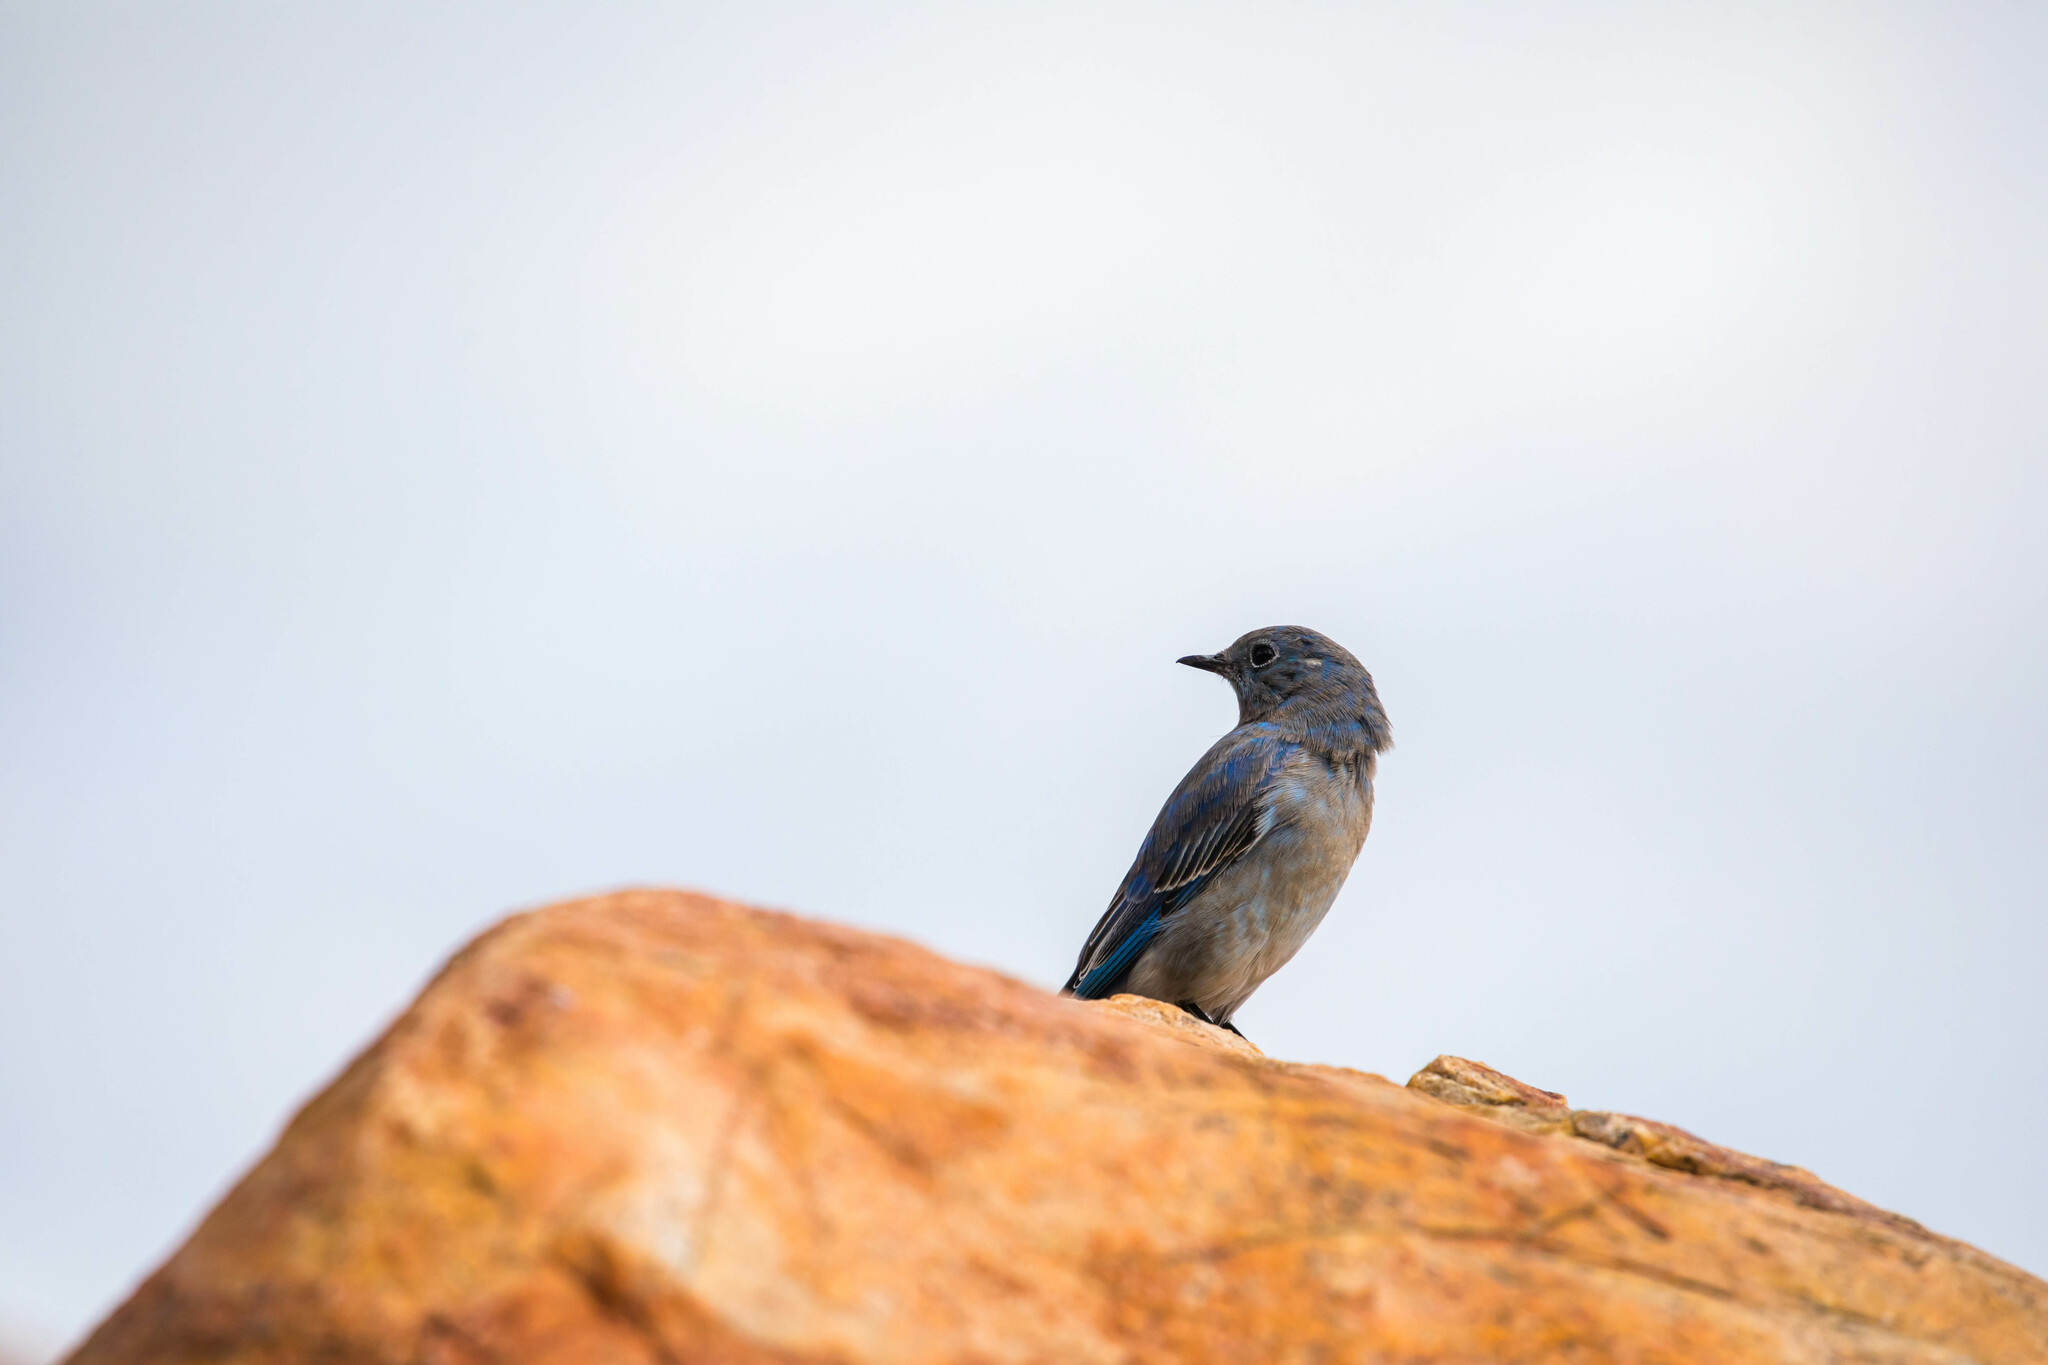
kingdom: Animalia
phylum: Chordata
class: Aves
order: Passeriformes
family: Turdidae
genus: Sialia
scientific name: Sialia currucoides
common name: Mountain bluebird
